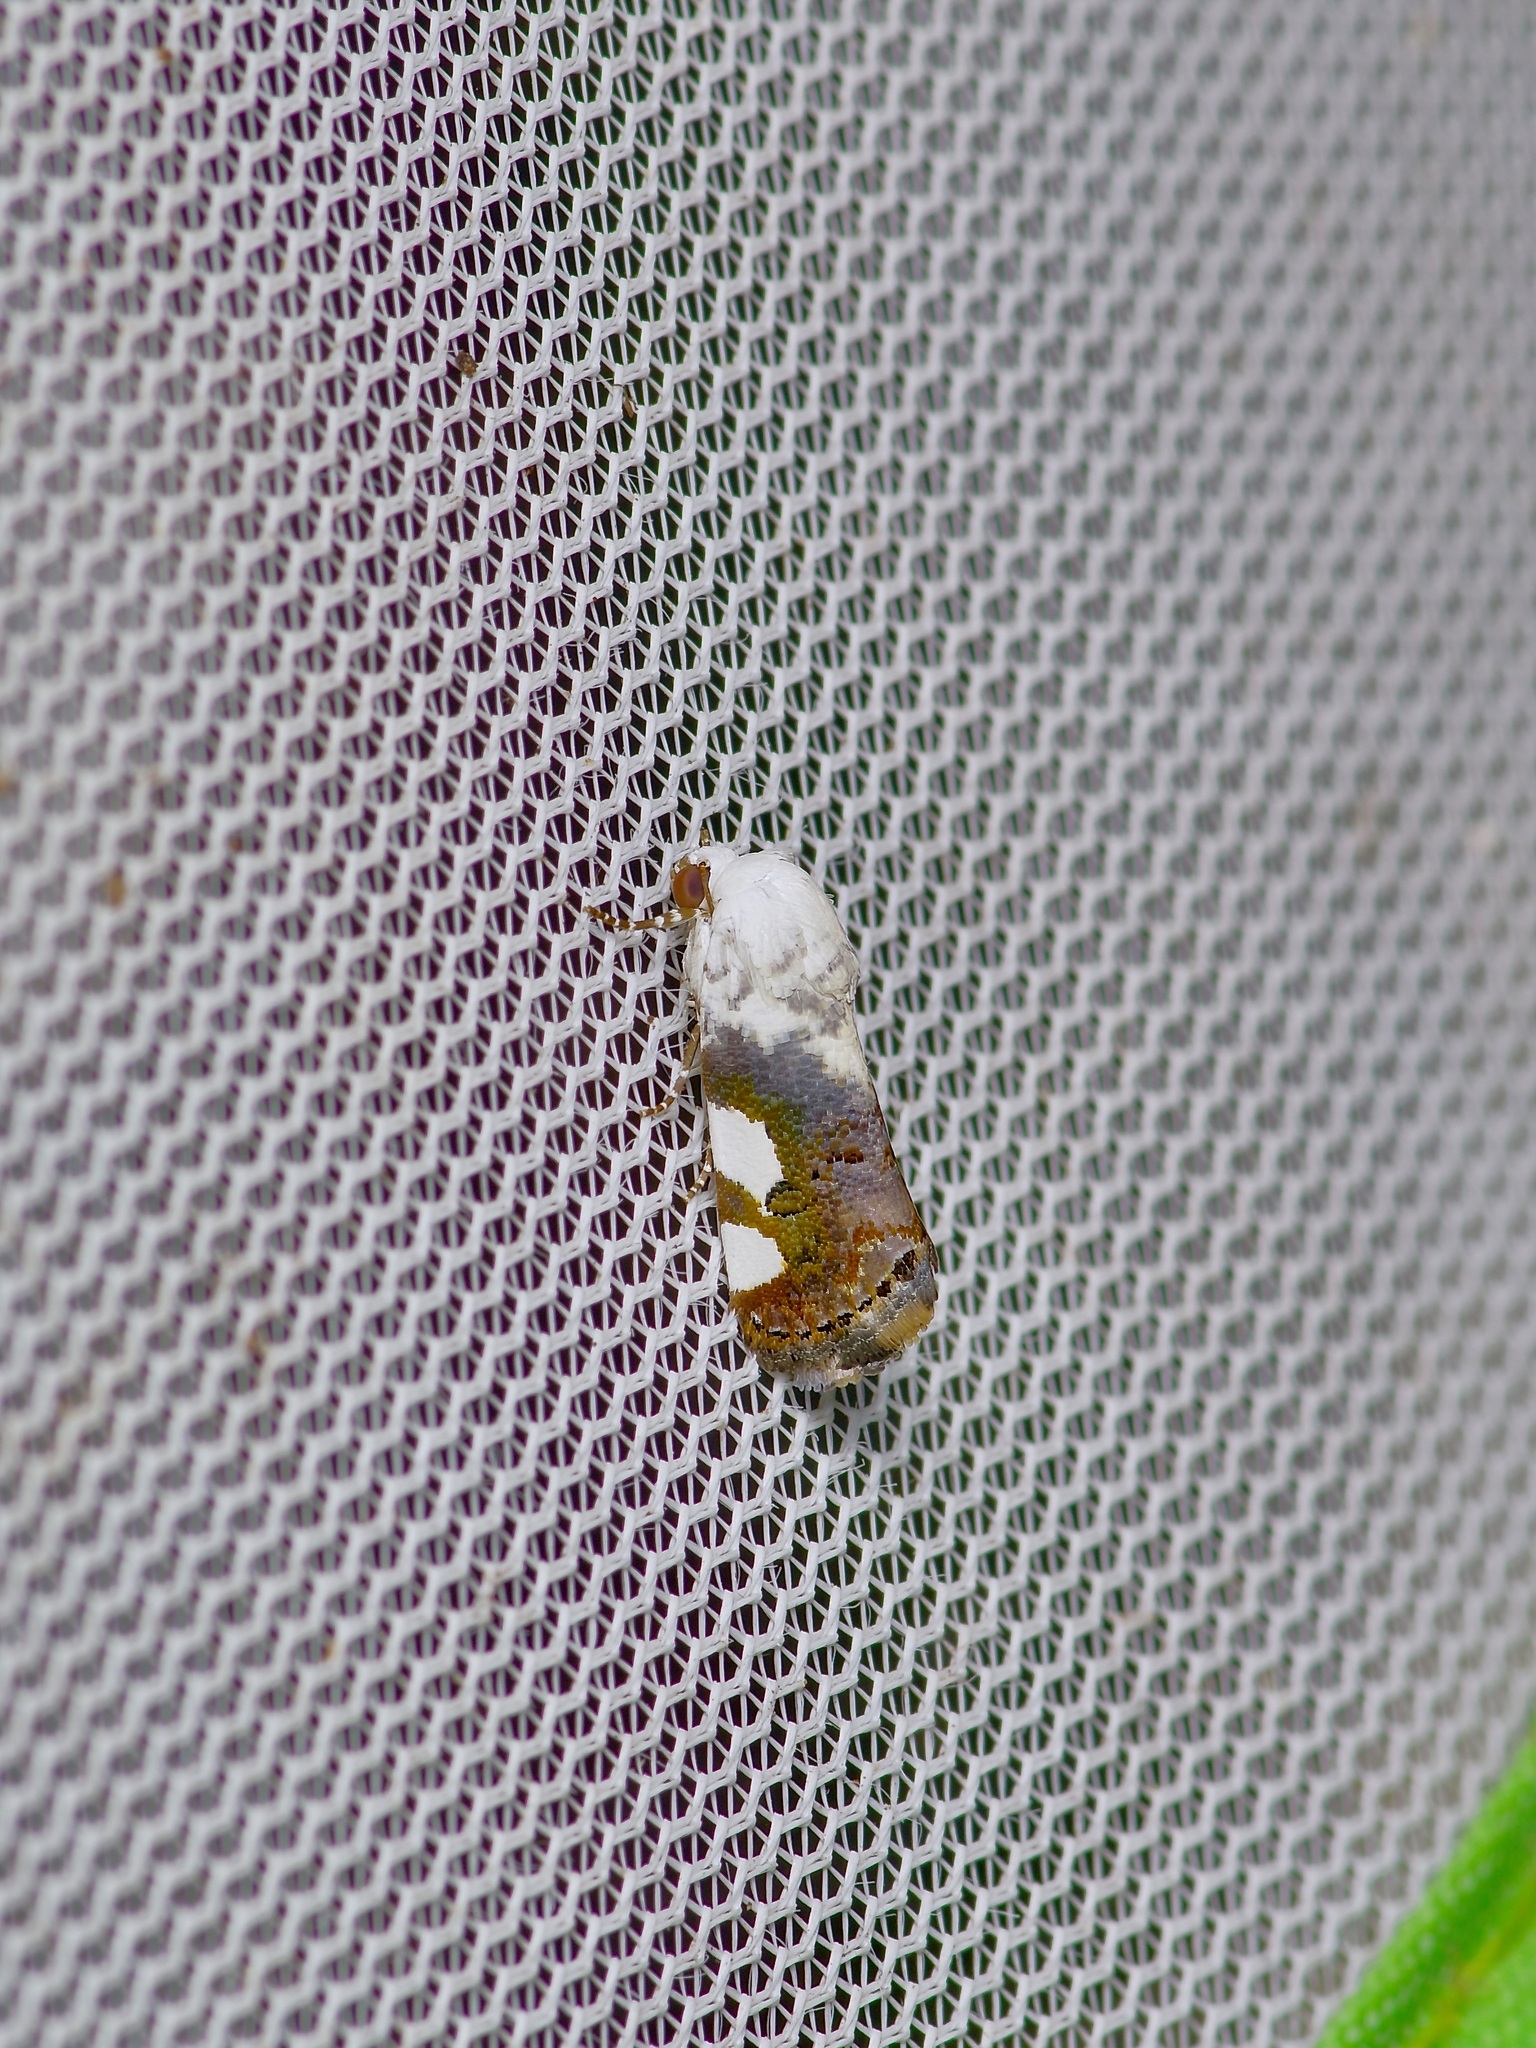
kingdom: Animalia
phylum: Arthropoda
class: Insecta
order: Lepidoptera
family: Noctuidae
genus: Acontia
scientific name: Acontia quadriplaga
